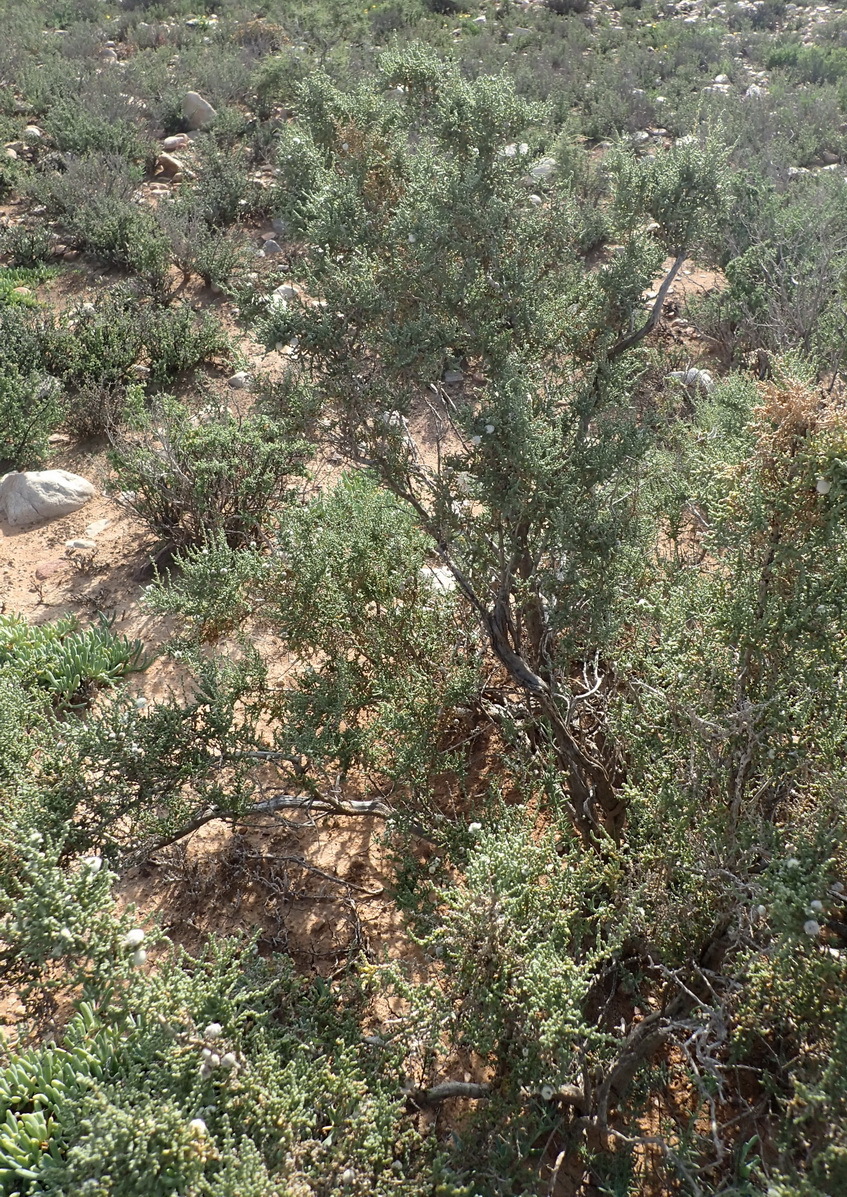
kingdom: Plantae
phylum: Tracheophyta
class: Magnoliopsida
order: Caryophyllales
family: Amaranthaceae
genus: Caroxylon
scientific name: Caroxylon aphyllum
